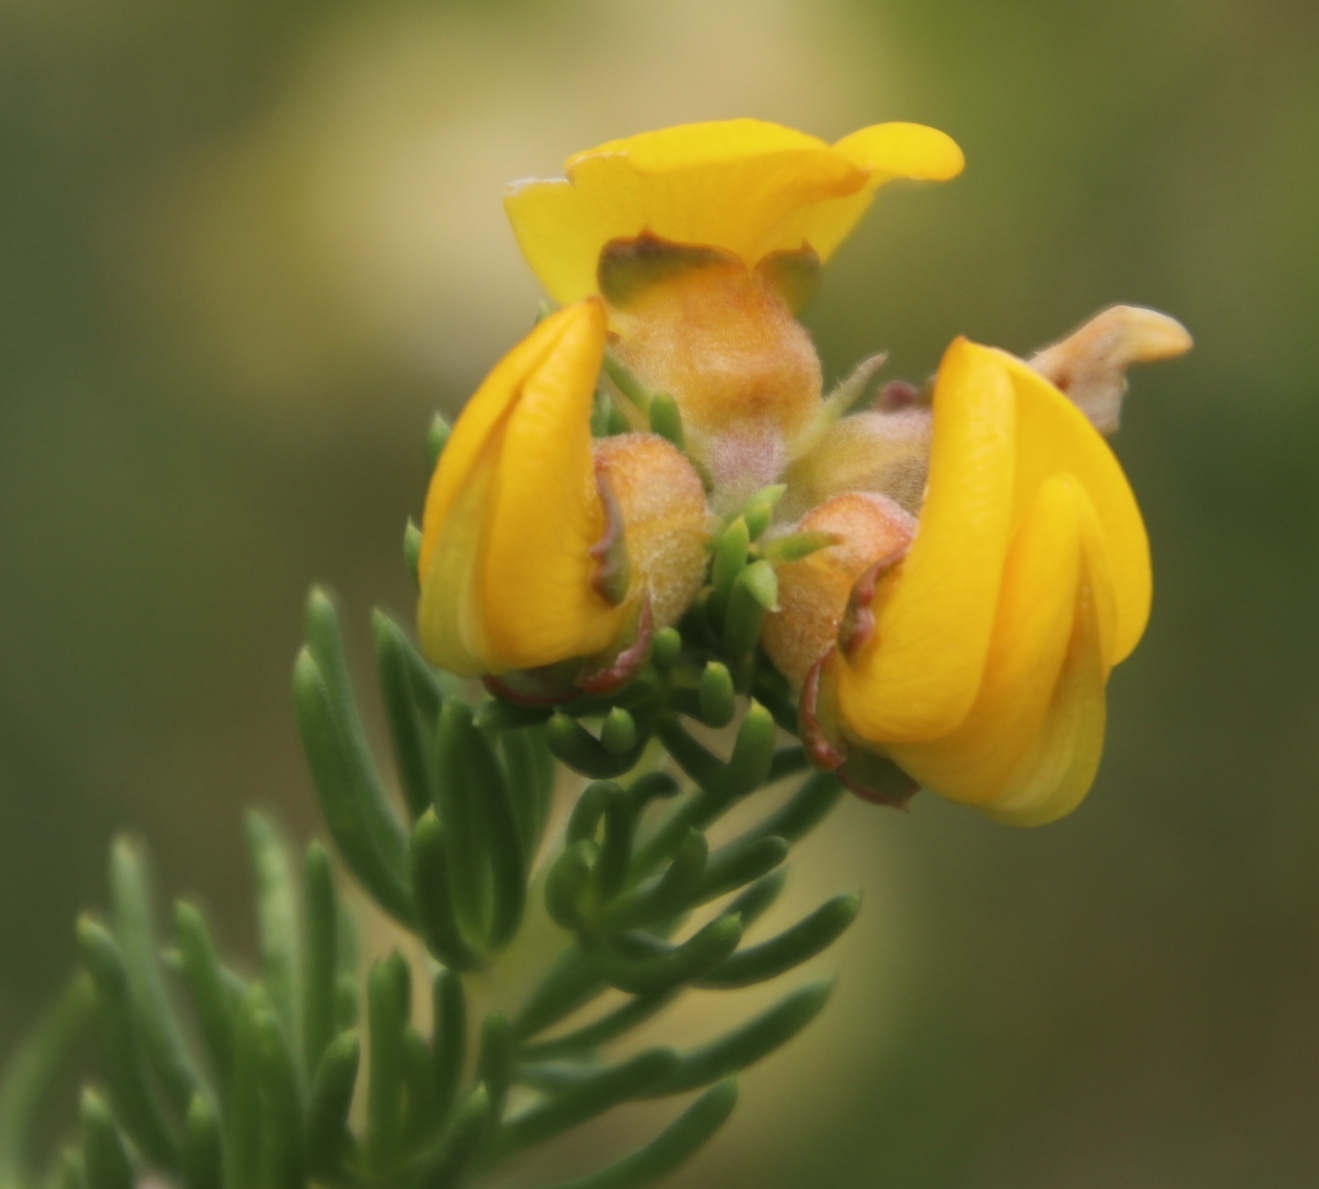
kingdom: Plantae
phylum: Tracheophyta
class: Magnoliopsida
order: Fabales
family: Fabaceae
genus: Aspalathus
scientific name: Aspalathus excelsa
